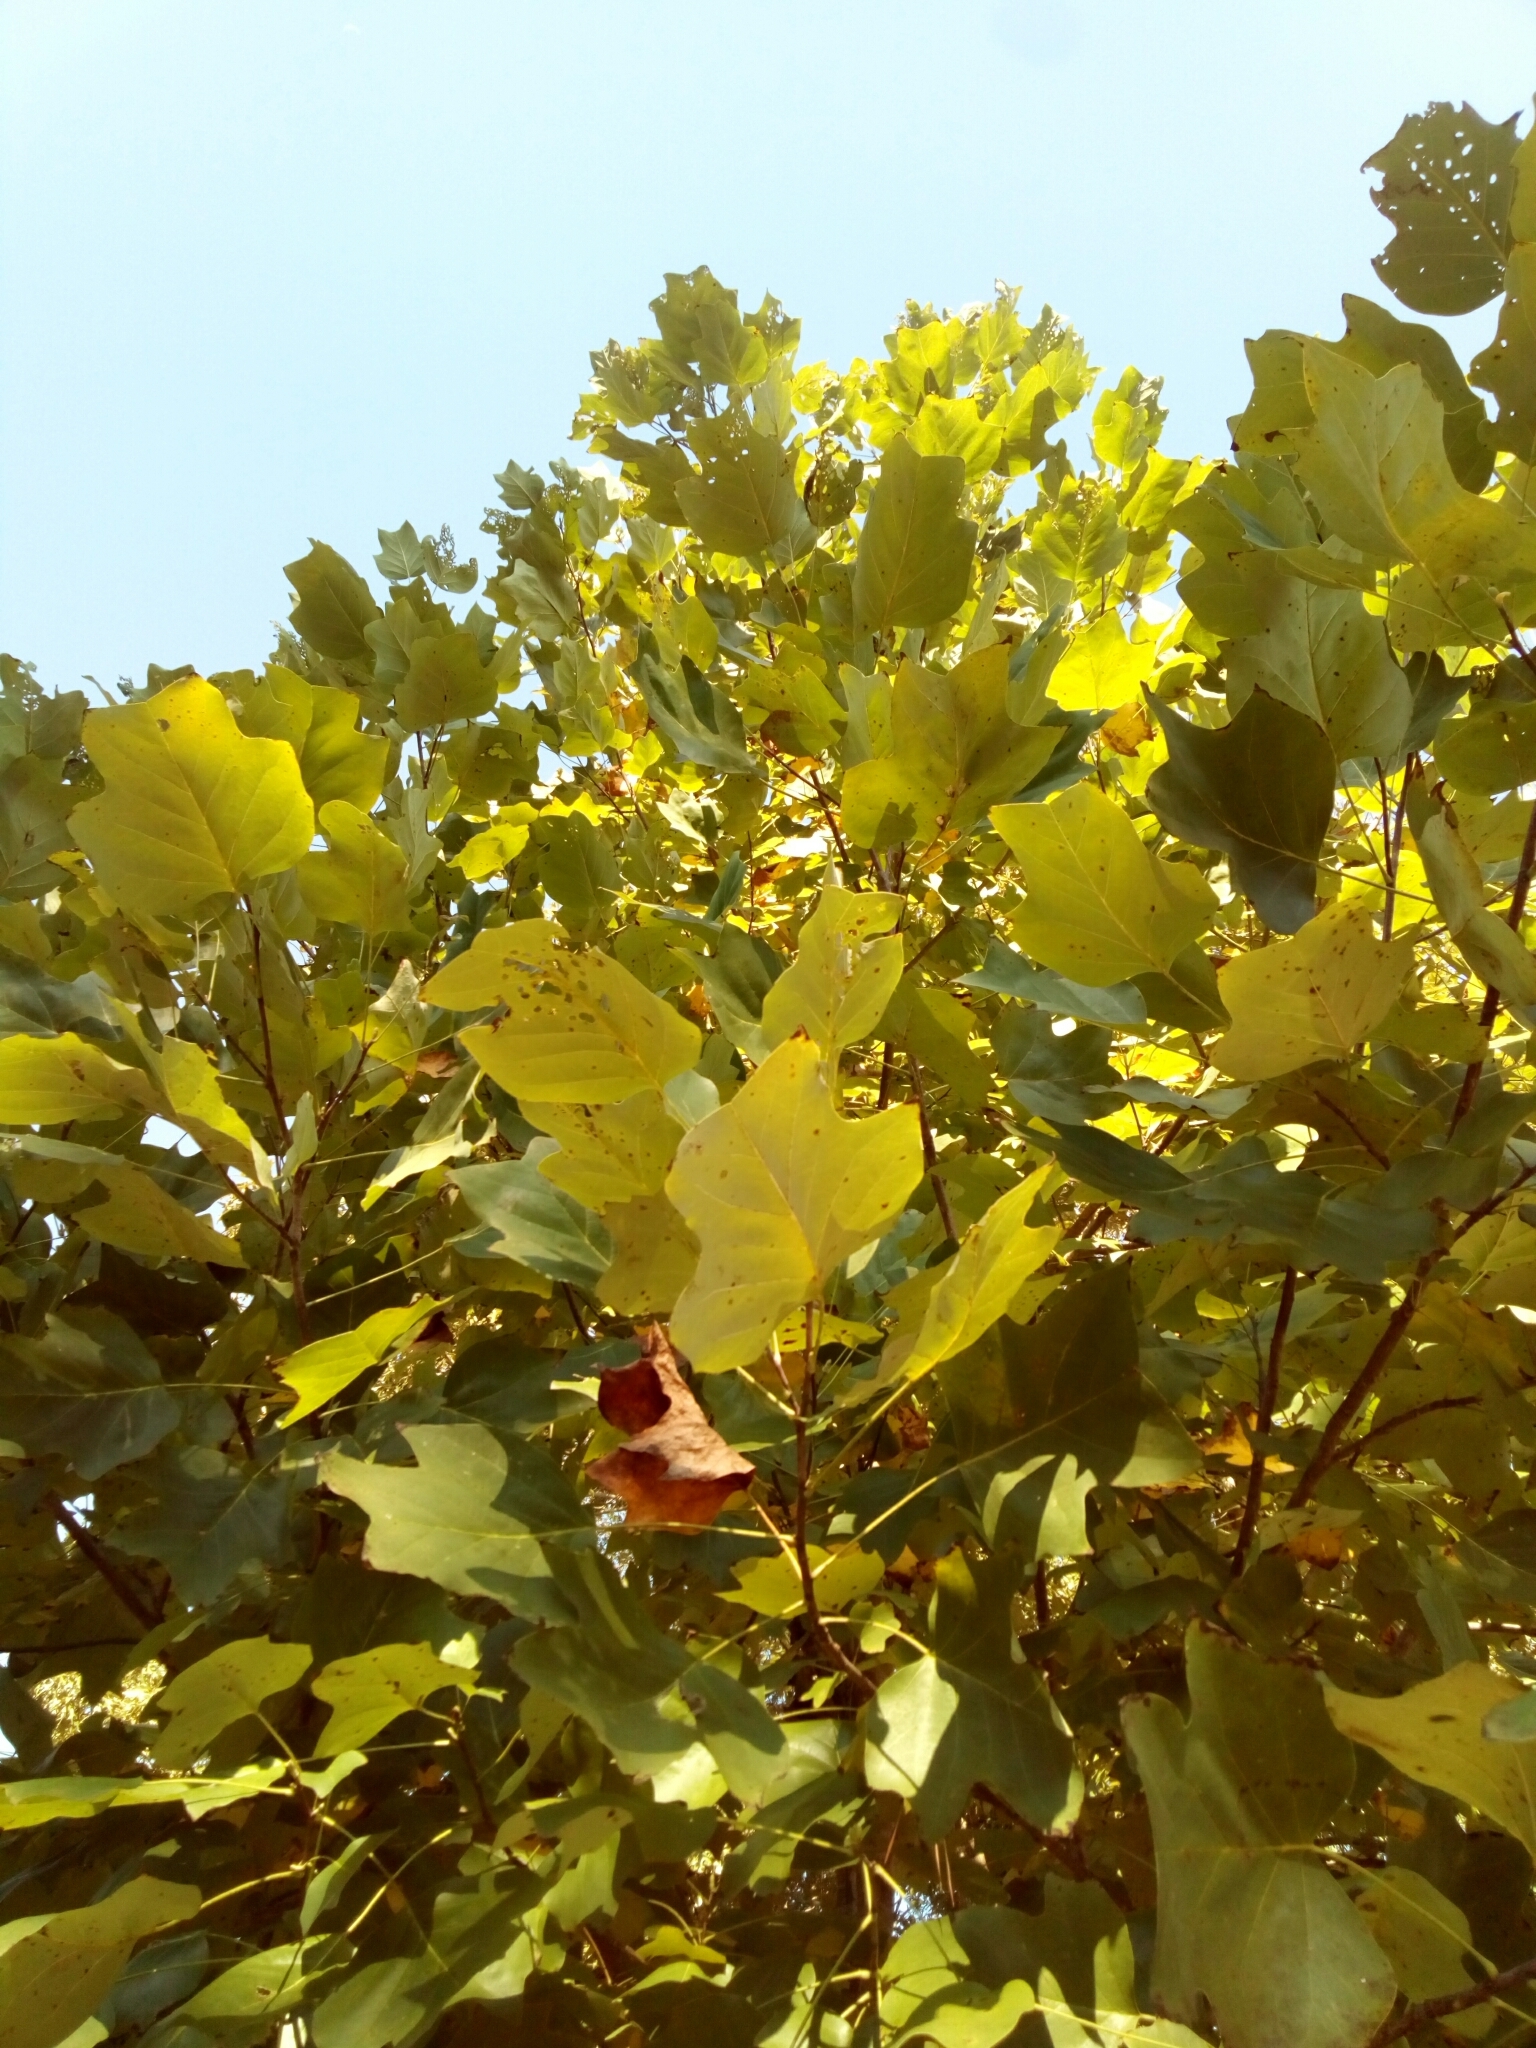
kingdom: Plantae
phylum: Tracheophyta
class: Magnoliopsida
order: Magnoliales
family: Magnoliaceae
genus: Liriodendron
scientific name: Liriodendron tulipifera
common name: Tulip tree
